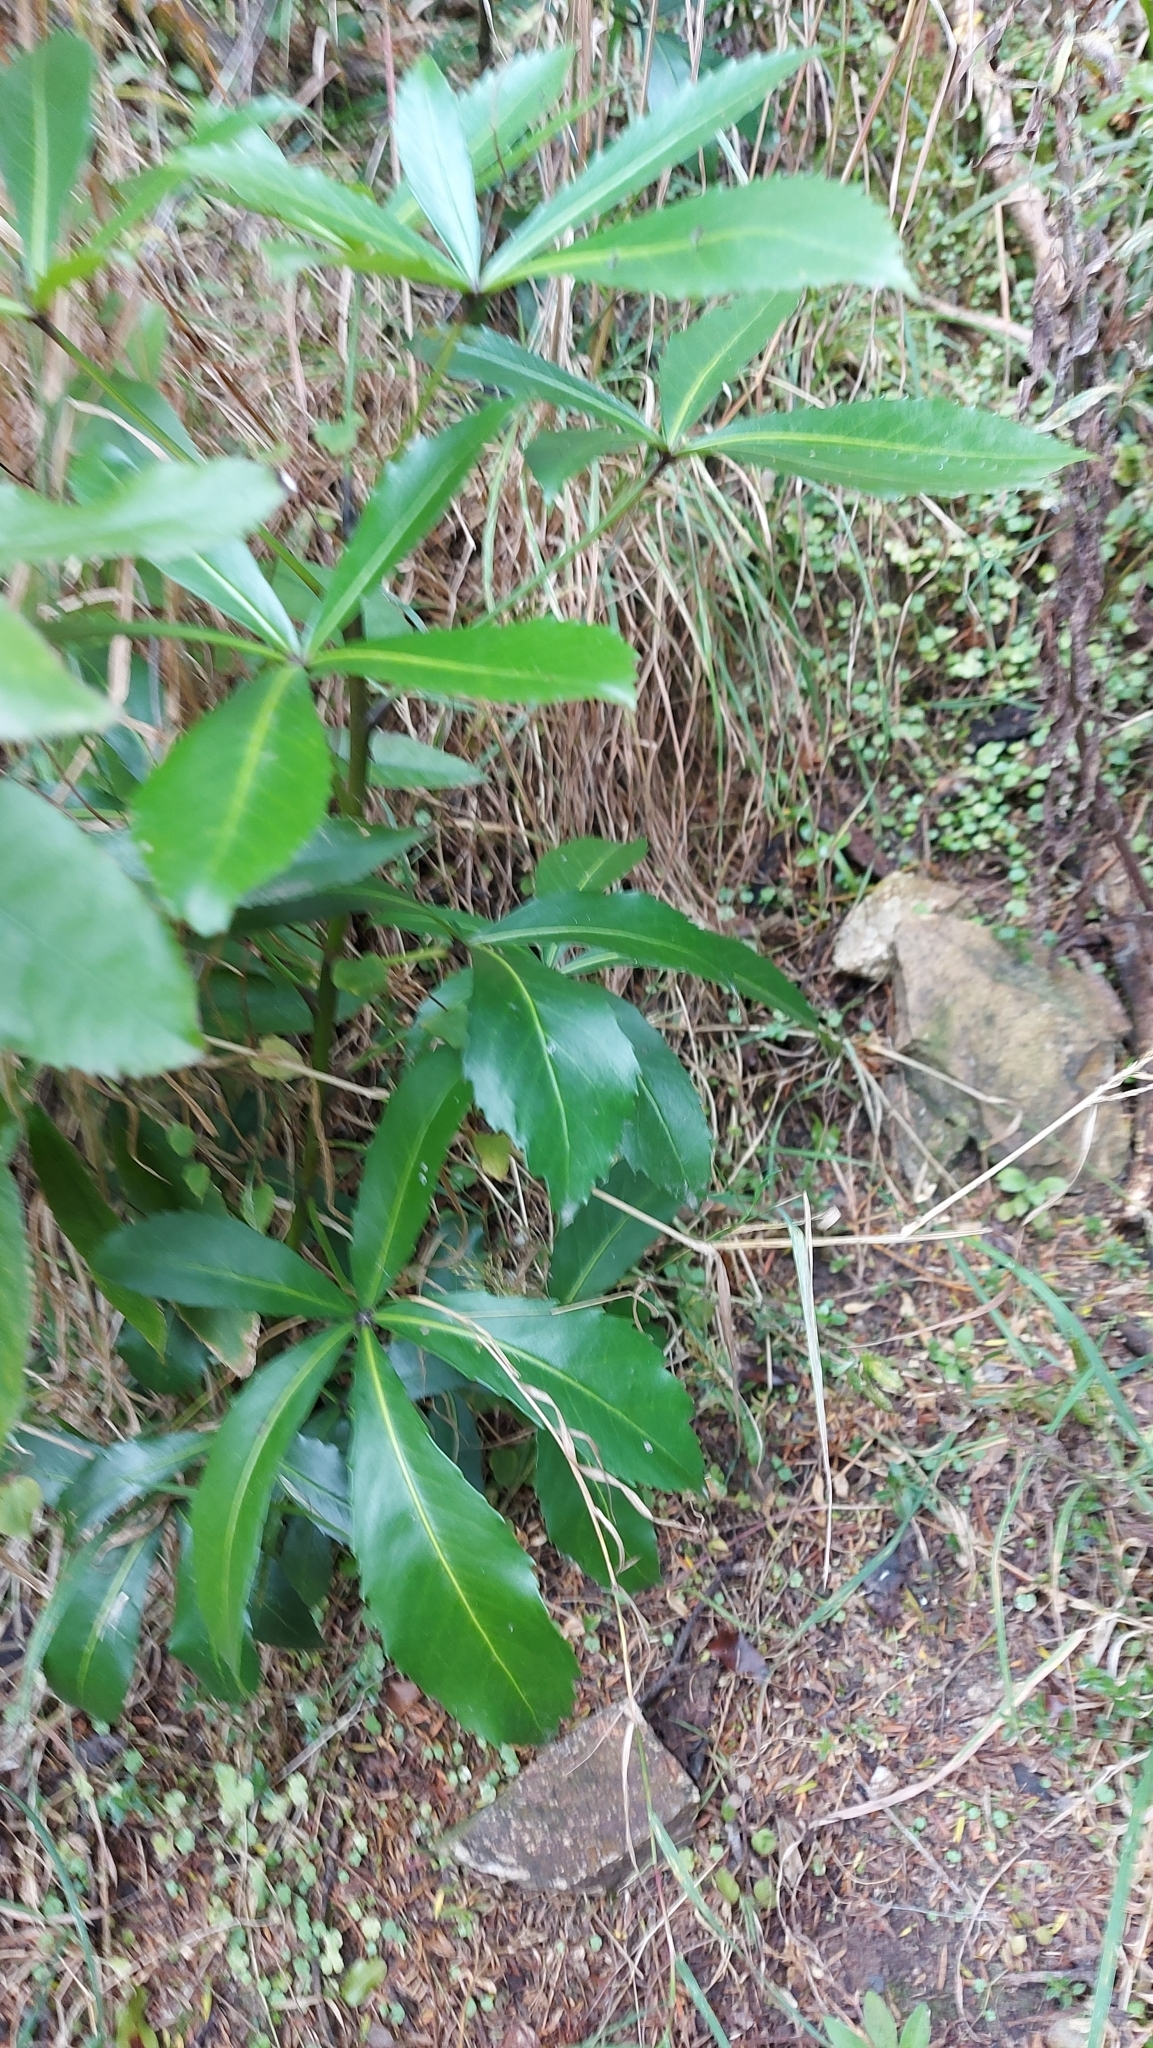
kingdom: Plantae
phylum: Tracheophyta
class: Magnoliopsida
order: Apiales
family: Araliaceae
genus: Neopanax
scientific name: Neopanax colensoi
